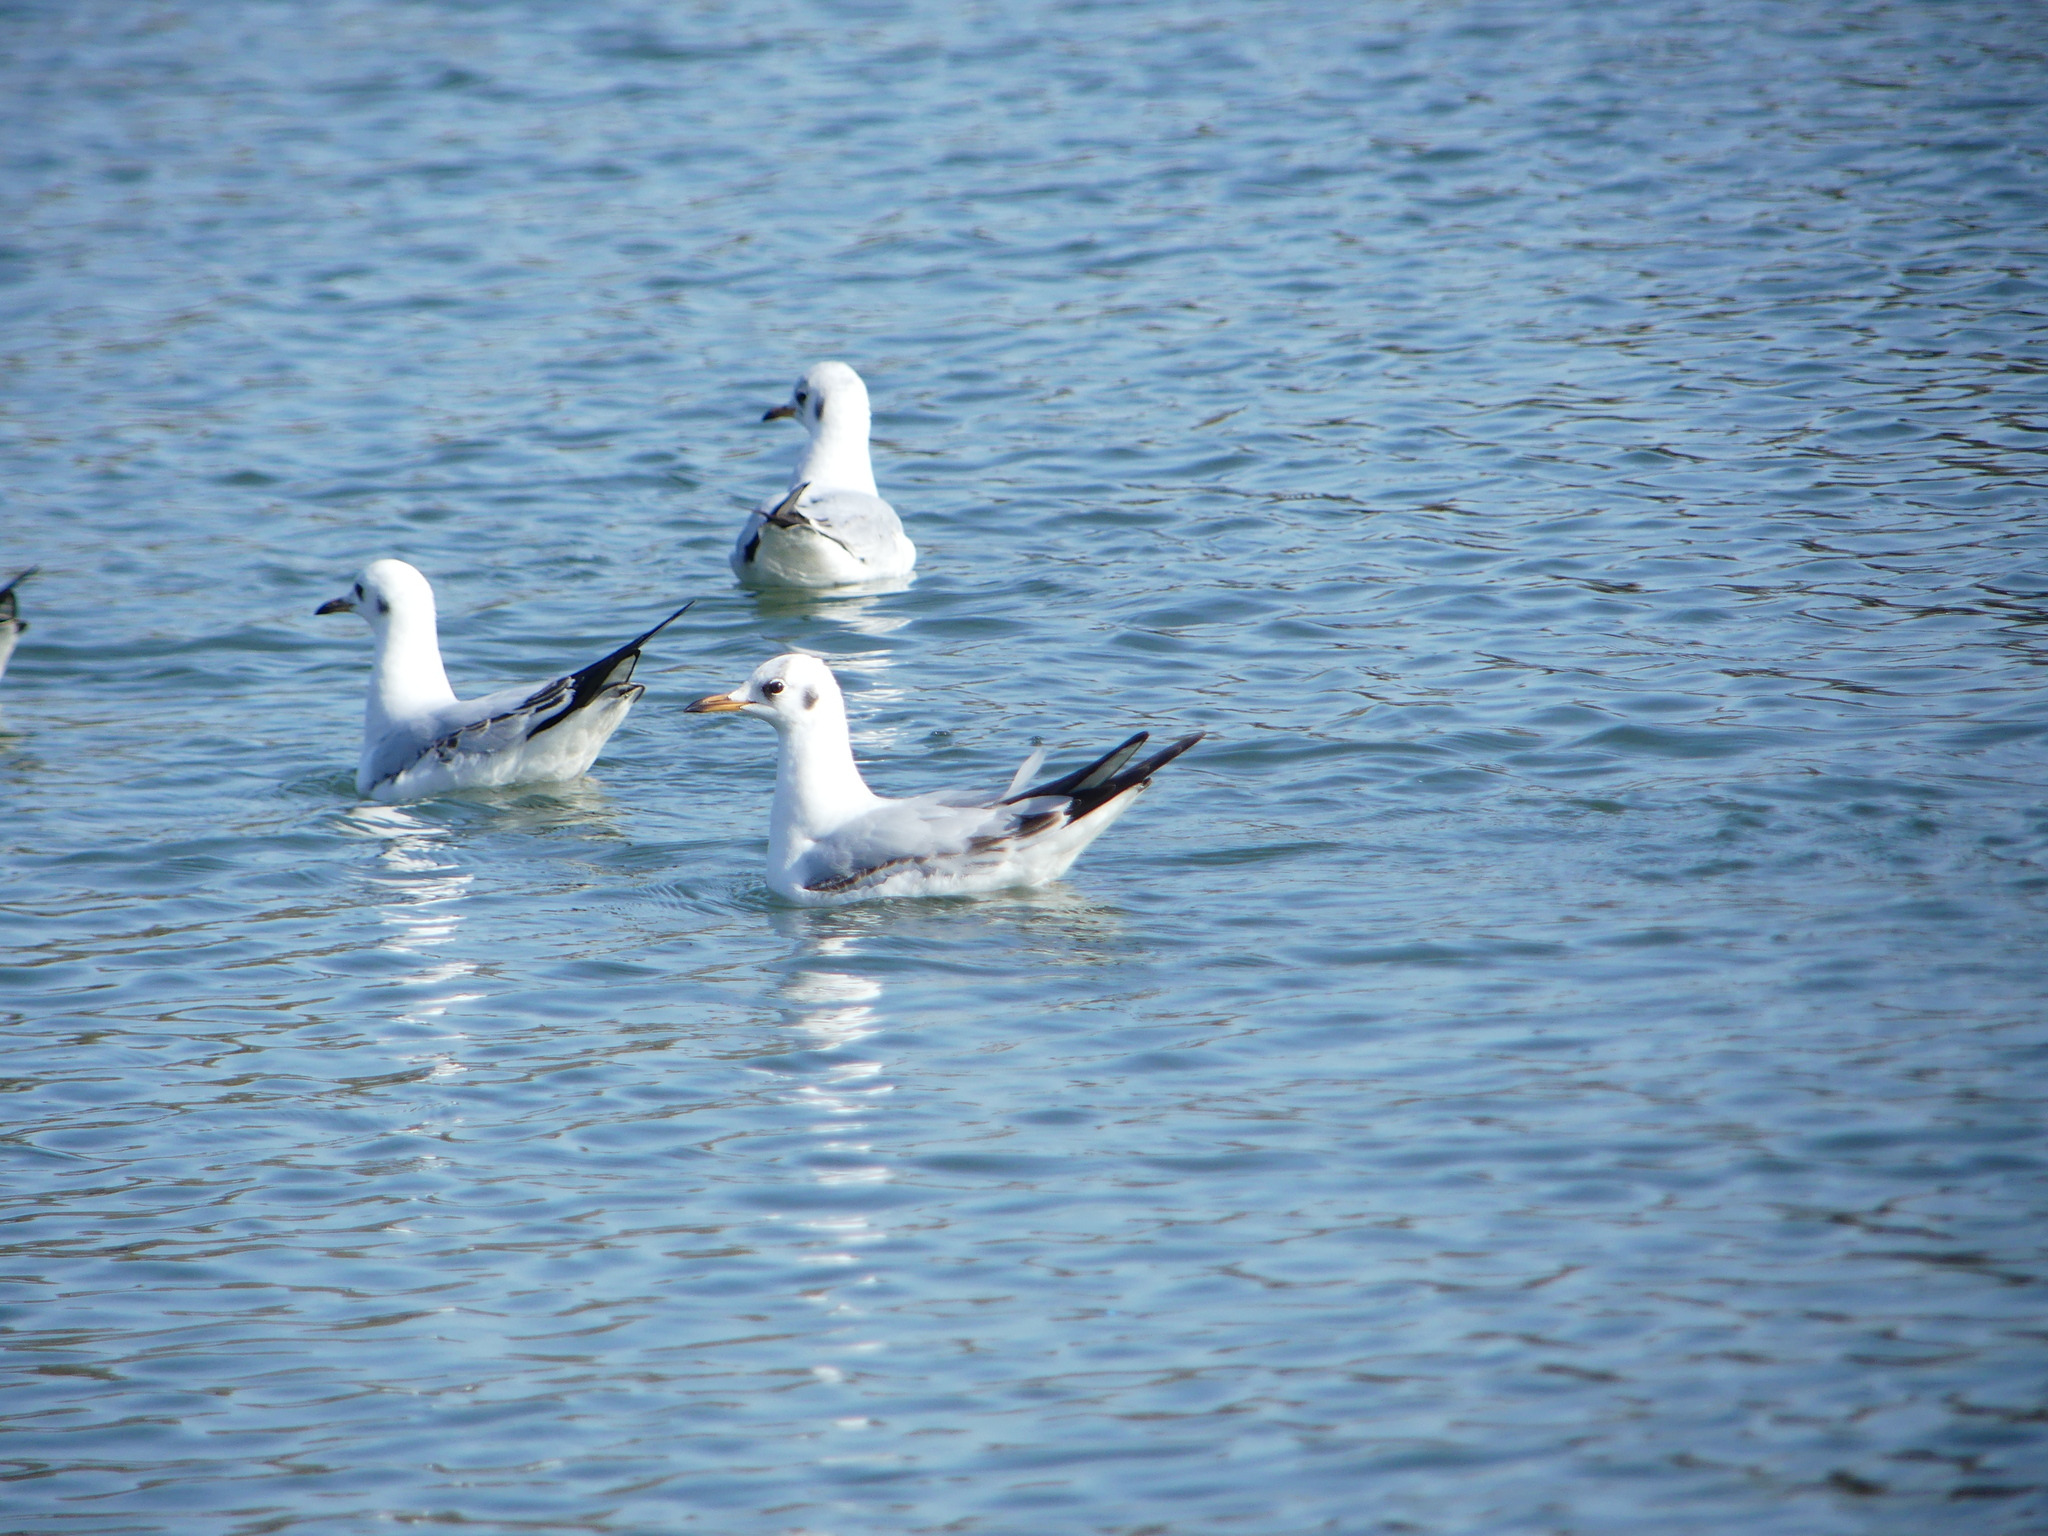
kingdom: Animalia
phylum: Chordata
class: Aves
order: Charadriiformes
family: Laridae
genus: Chroicocephalus
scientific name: Chroicocephalus ridibundus
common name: Black-headed gull
